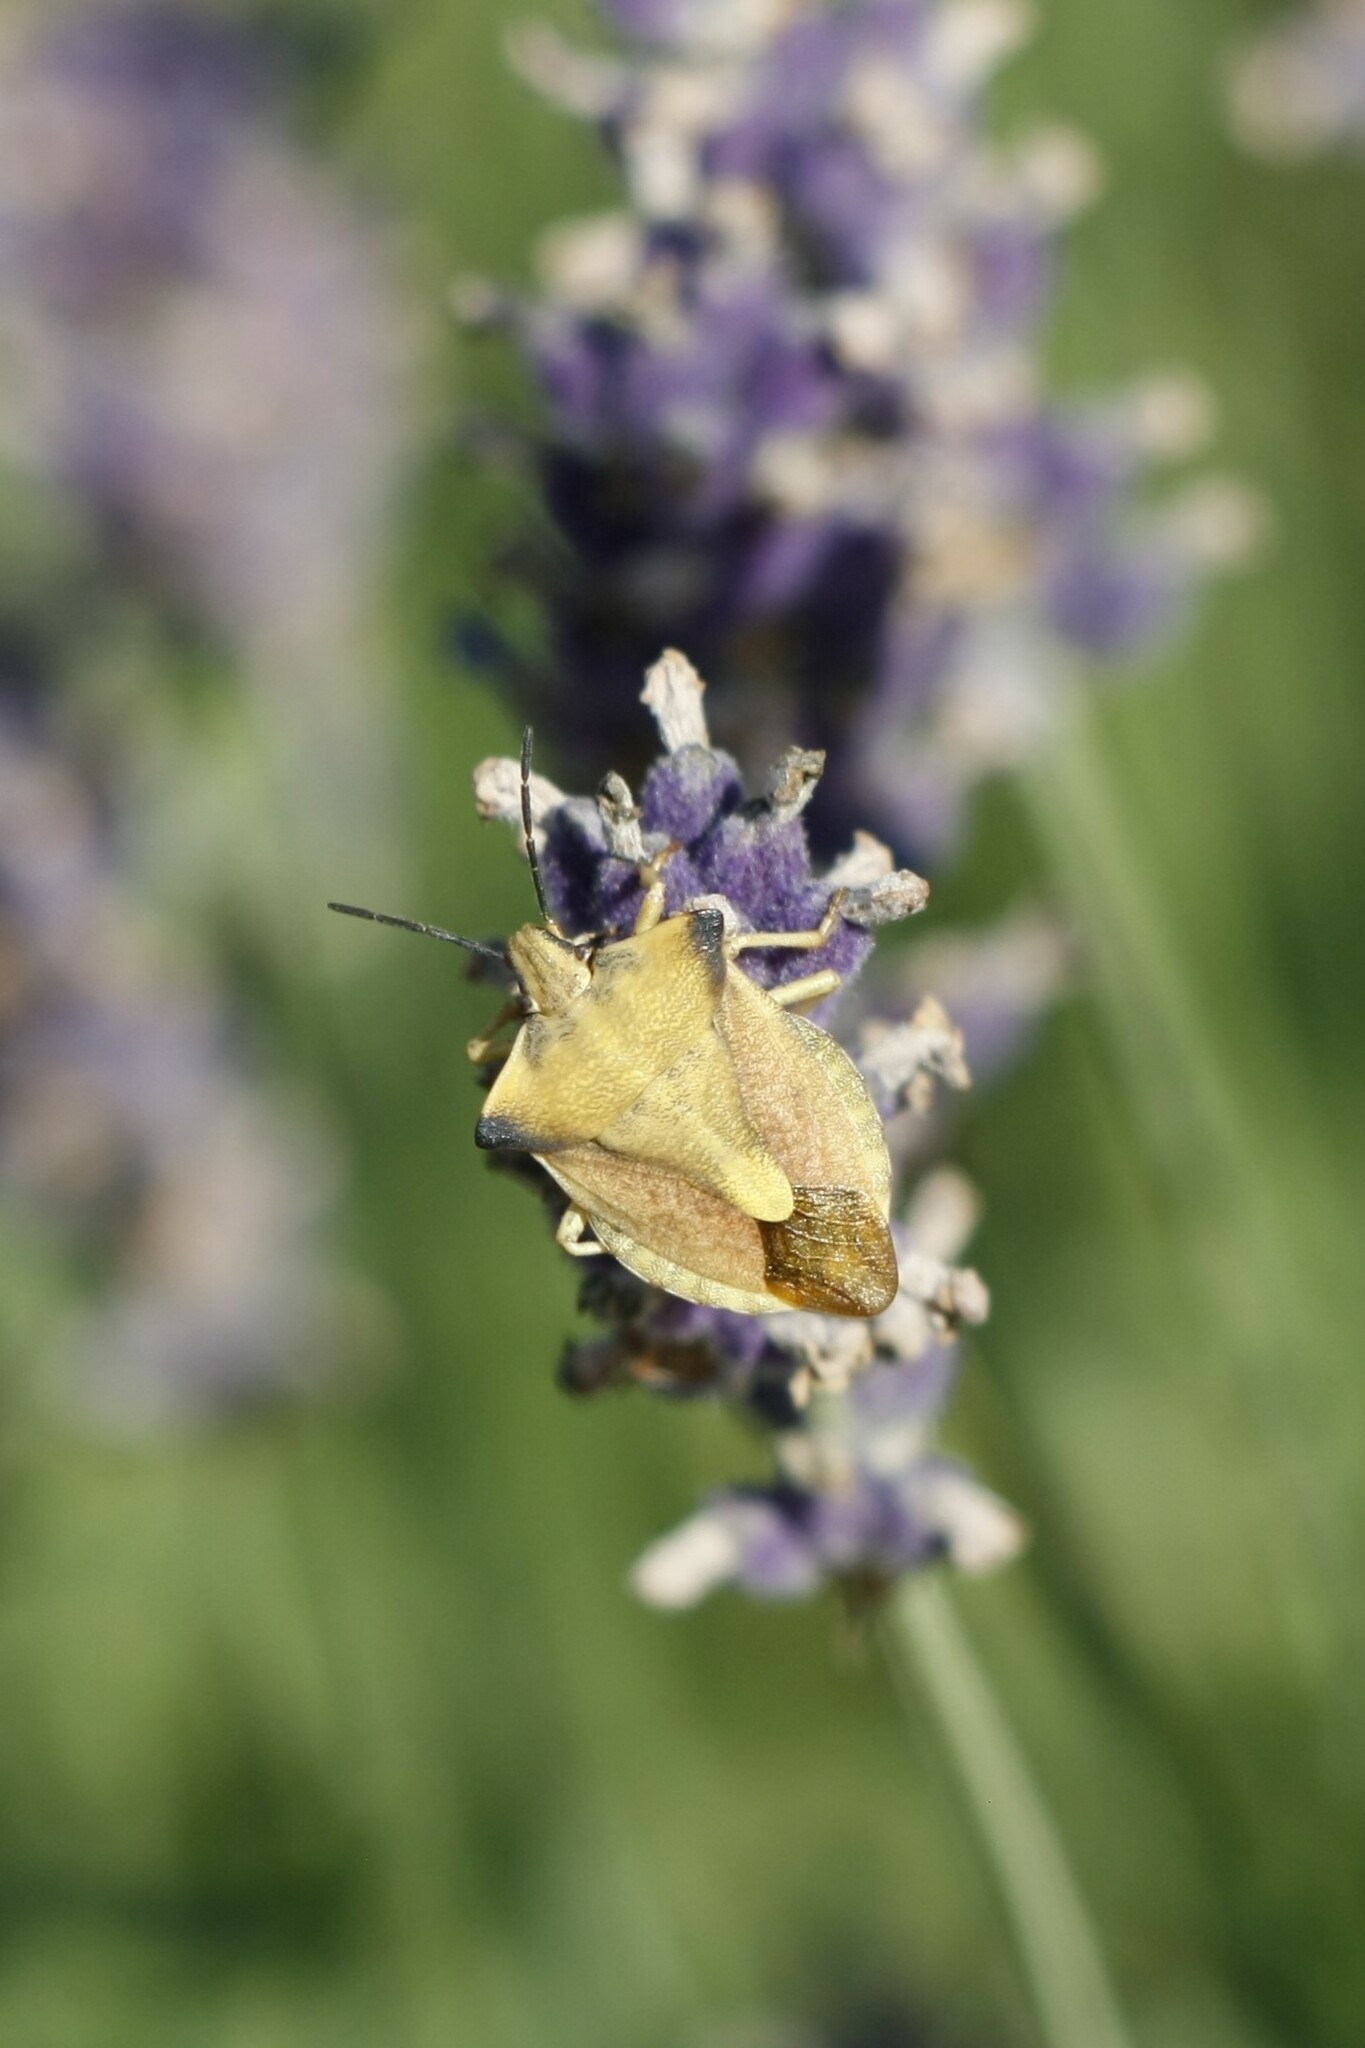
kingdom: Animalia
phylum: Arthropoda
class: Insecta
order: Hemiptera
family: Pentatomidae
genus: Carpocoris
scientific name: Carpocoris fuscispinus
